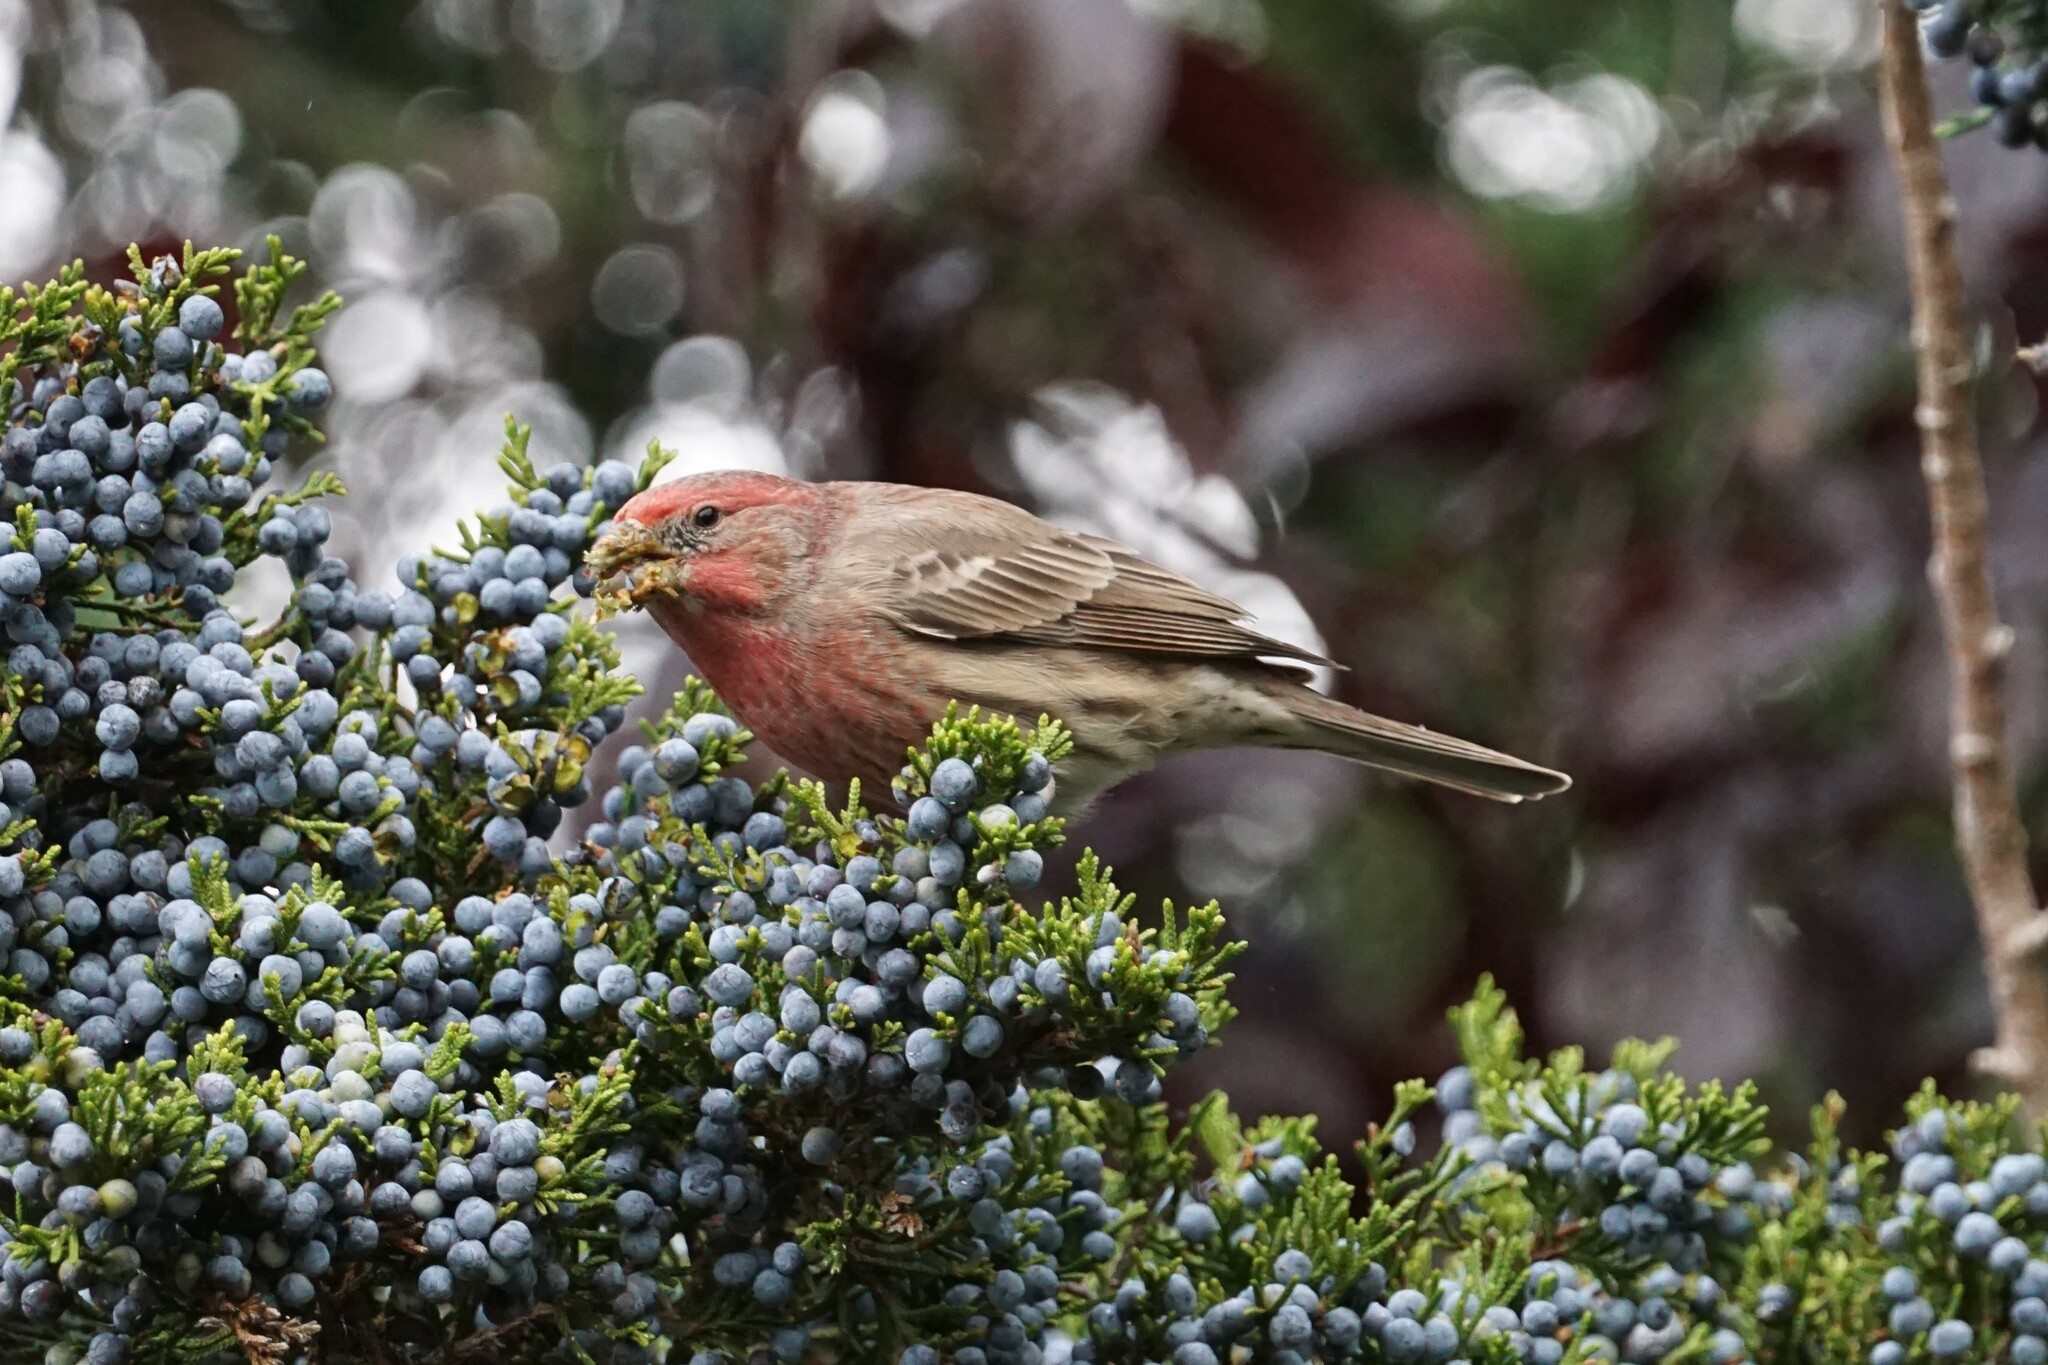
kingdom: Animalia
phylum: Chordata
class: Aves
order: Passeriformes
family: Fringillidae
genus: Haemorhous
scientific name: Haemorhous mexicanus
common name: House finch
